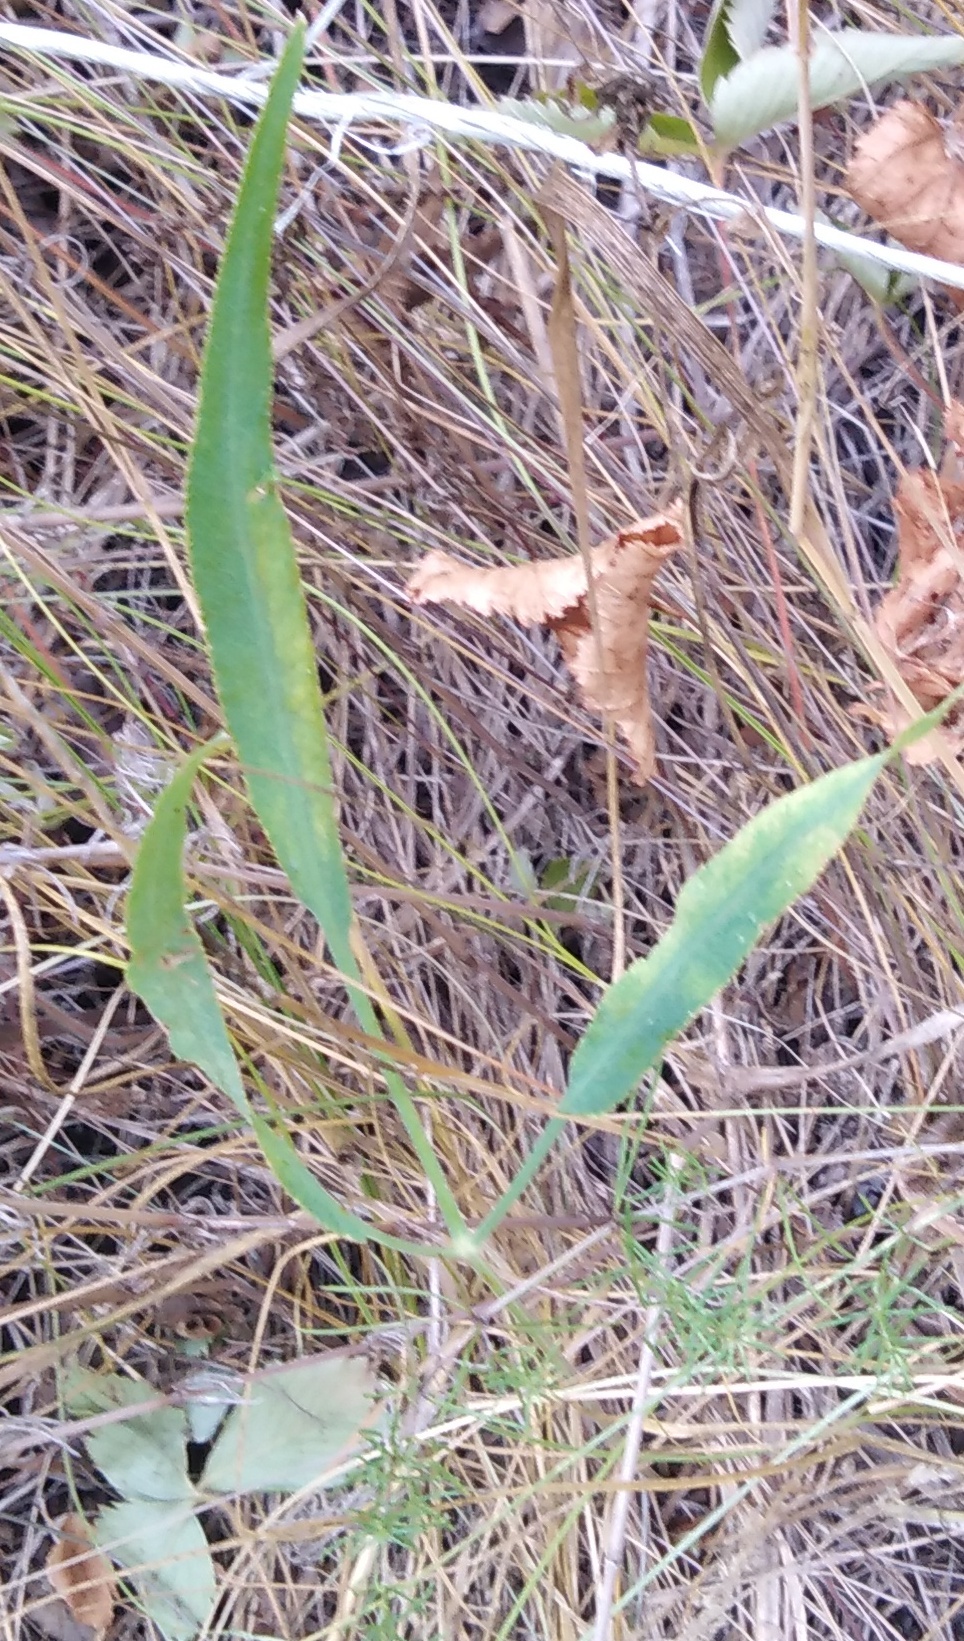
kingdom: Plantae
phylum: Tracheophyta
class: Magnoliopsida
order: Apiales
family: Apiaceae
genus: Falcaria
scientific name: Falcaria vulgaris
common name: Longleaf
